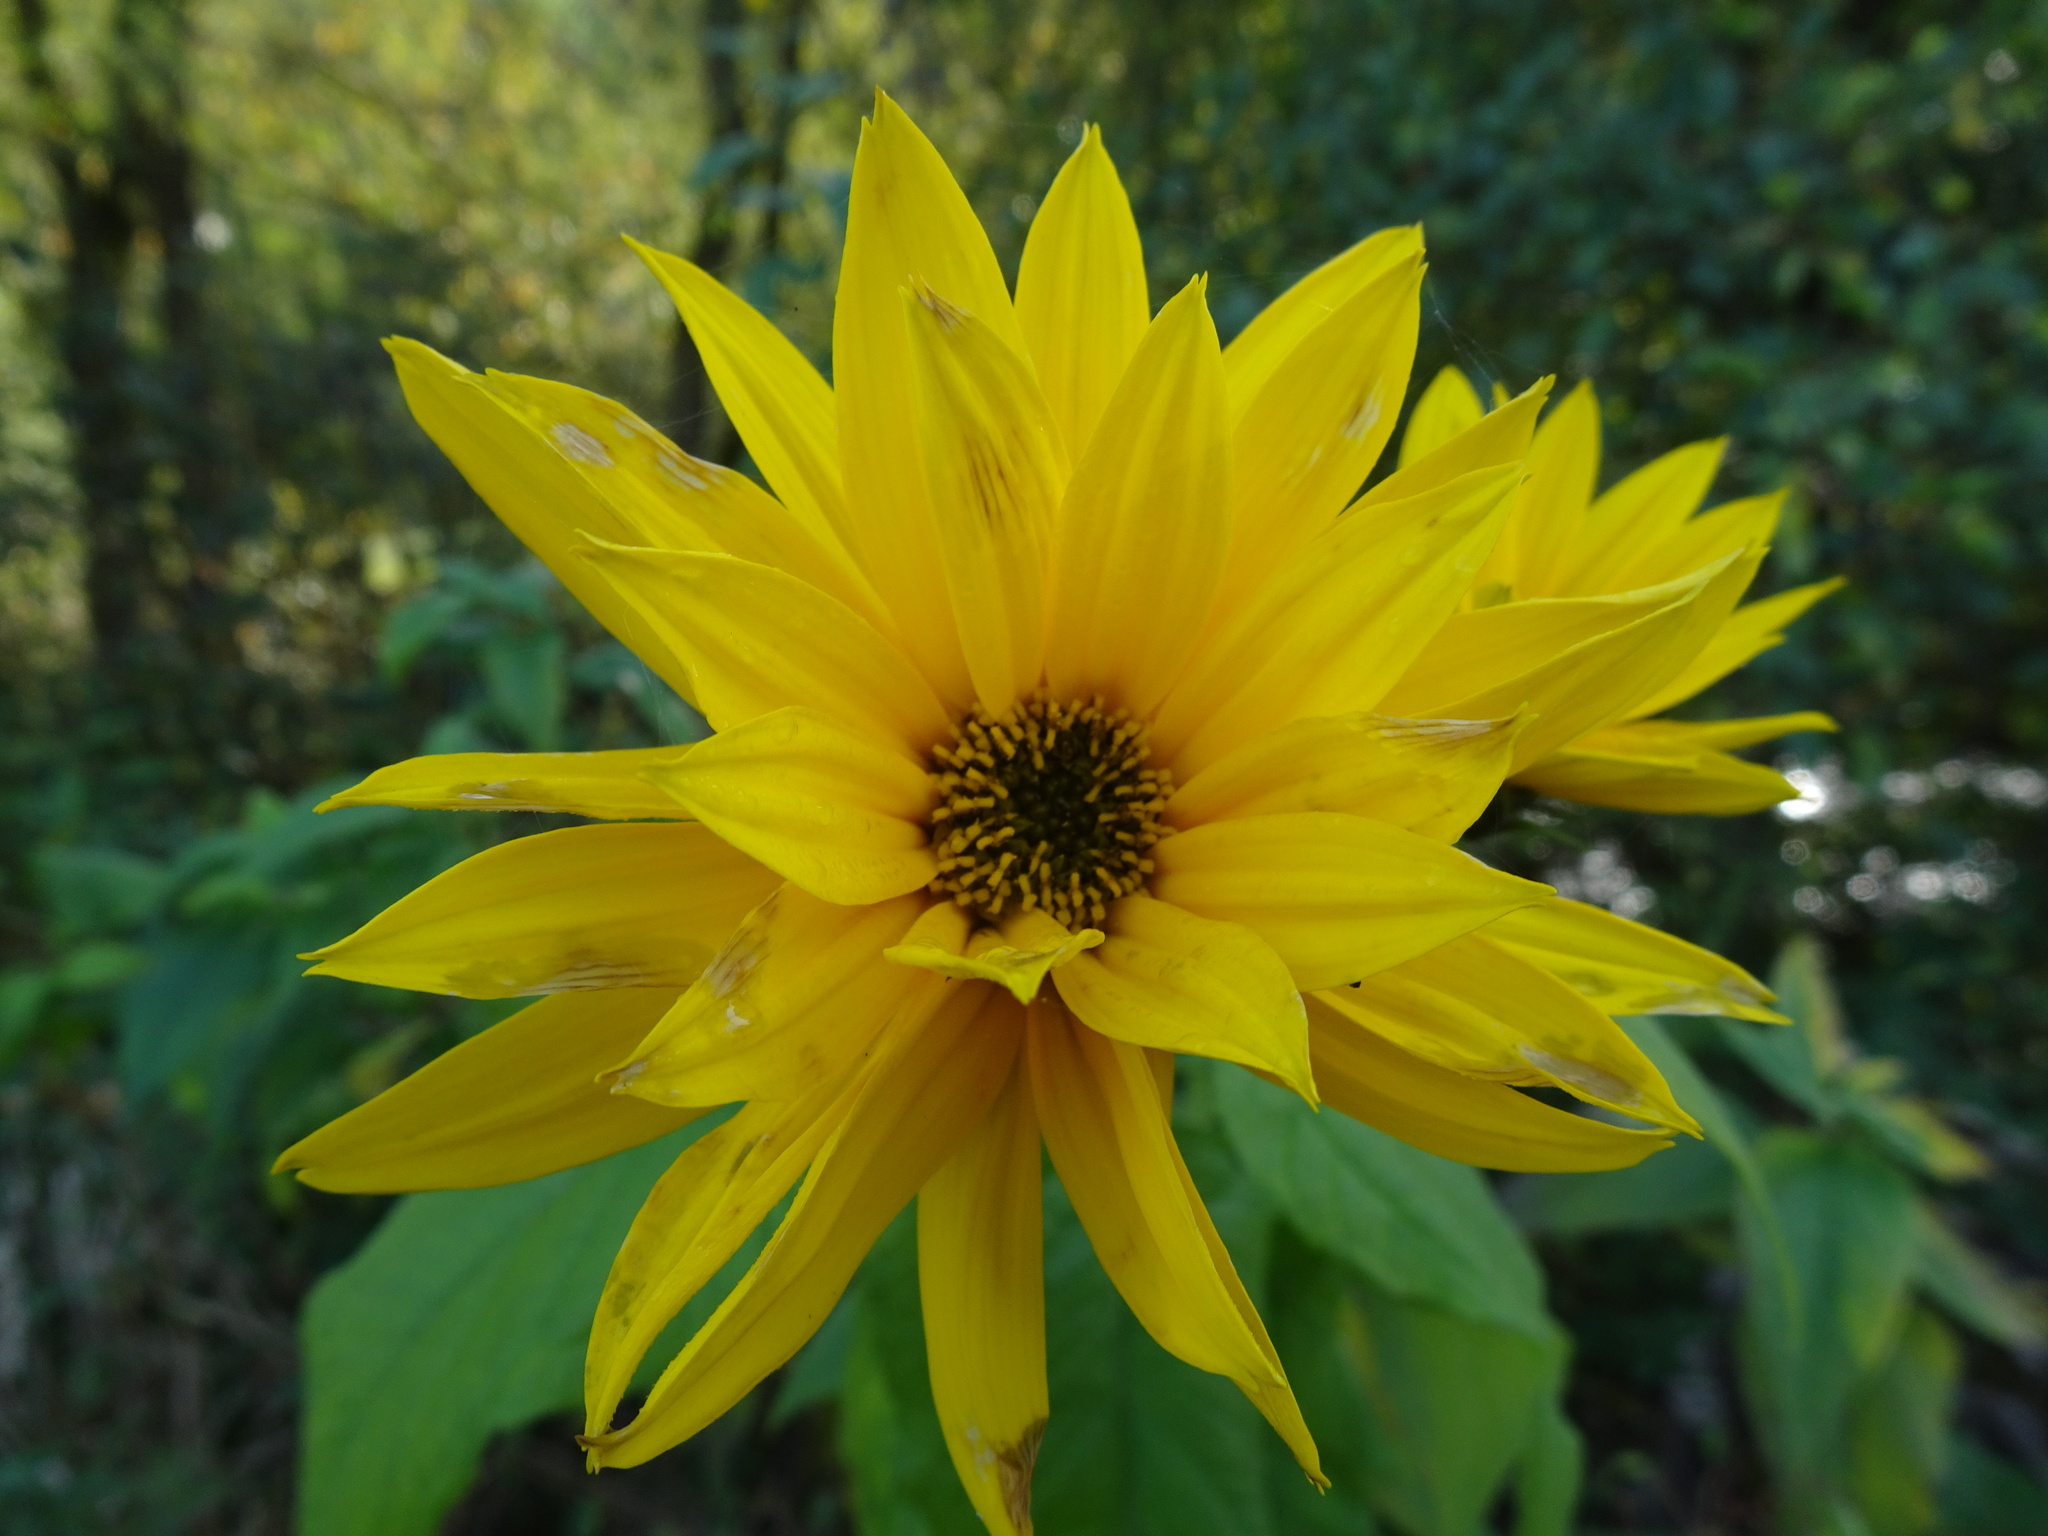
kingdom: Plantae
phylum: Tracheophyta
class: Magnoliopsida
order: Asterales
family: Asteraceae
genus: Helianthus
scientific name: Helianthus tuberosus
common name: Jerusalem artichoke
